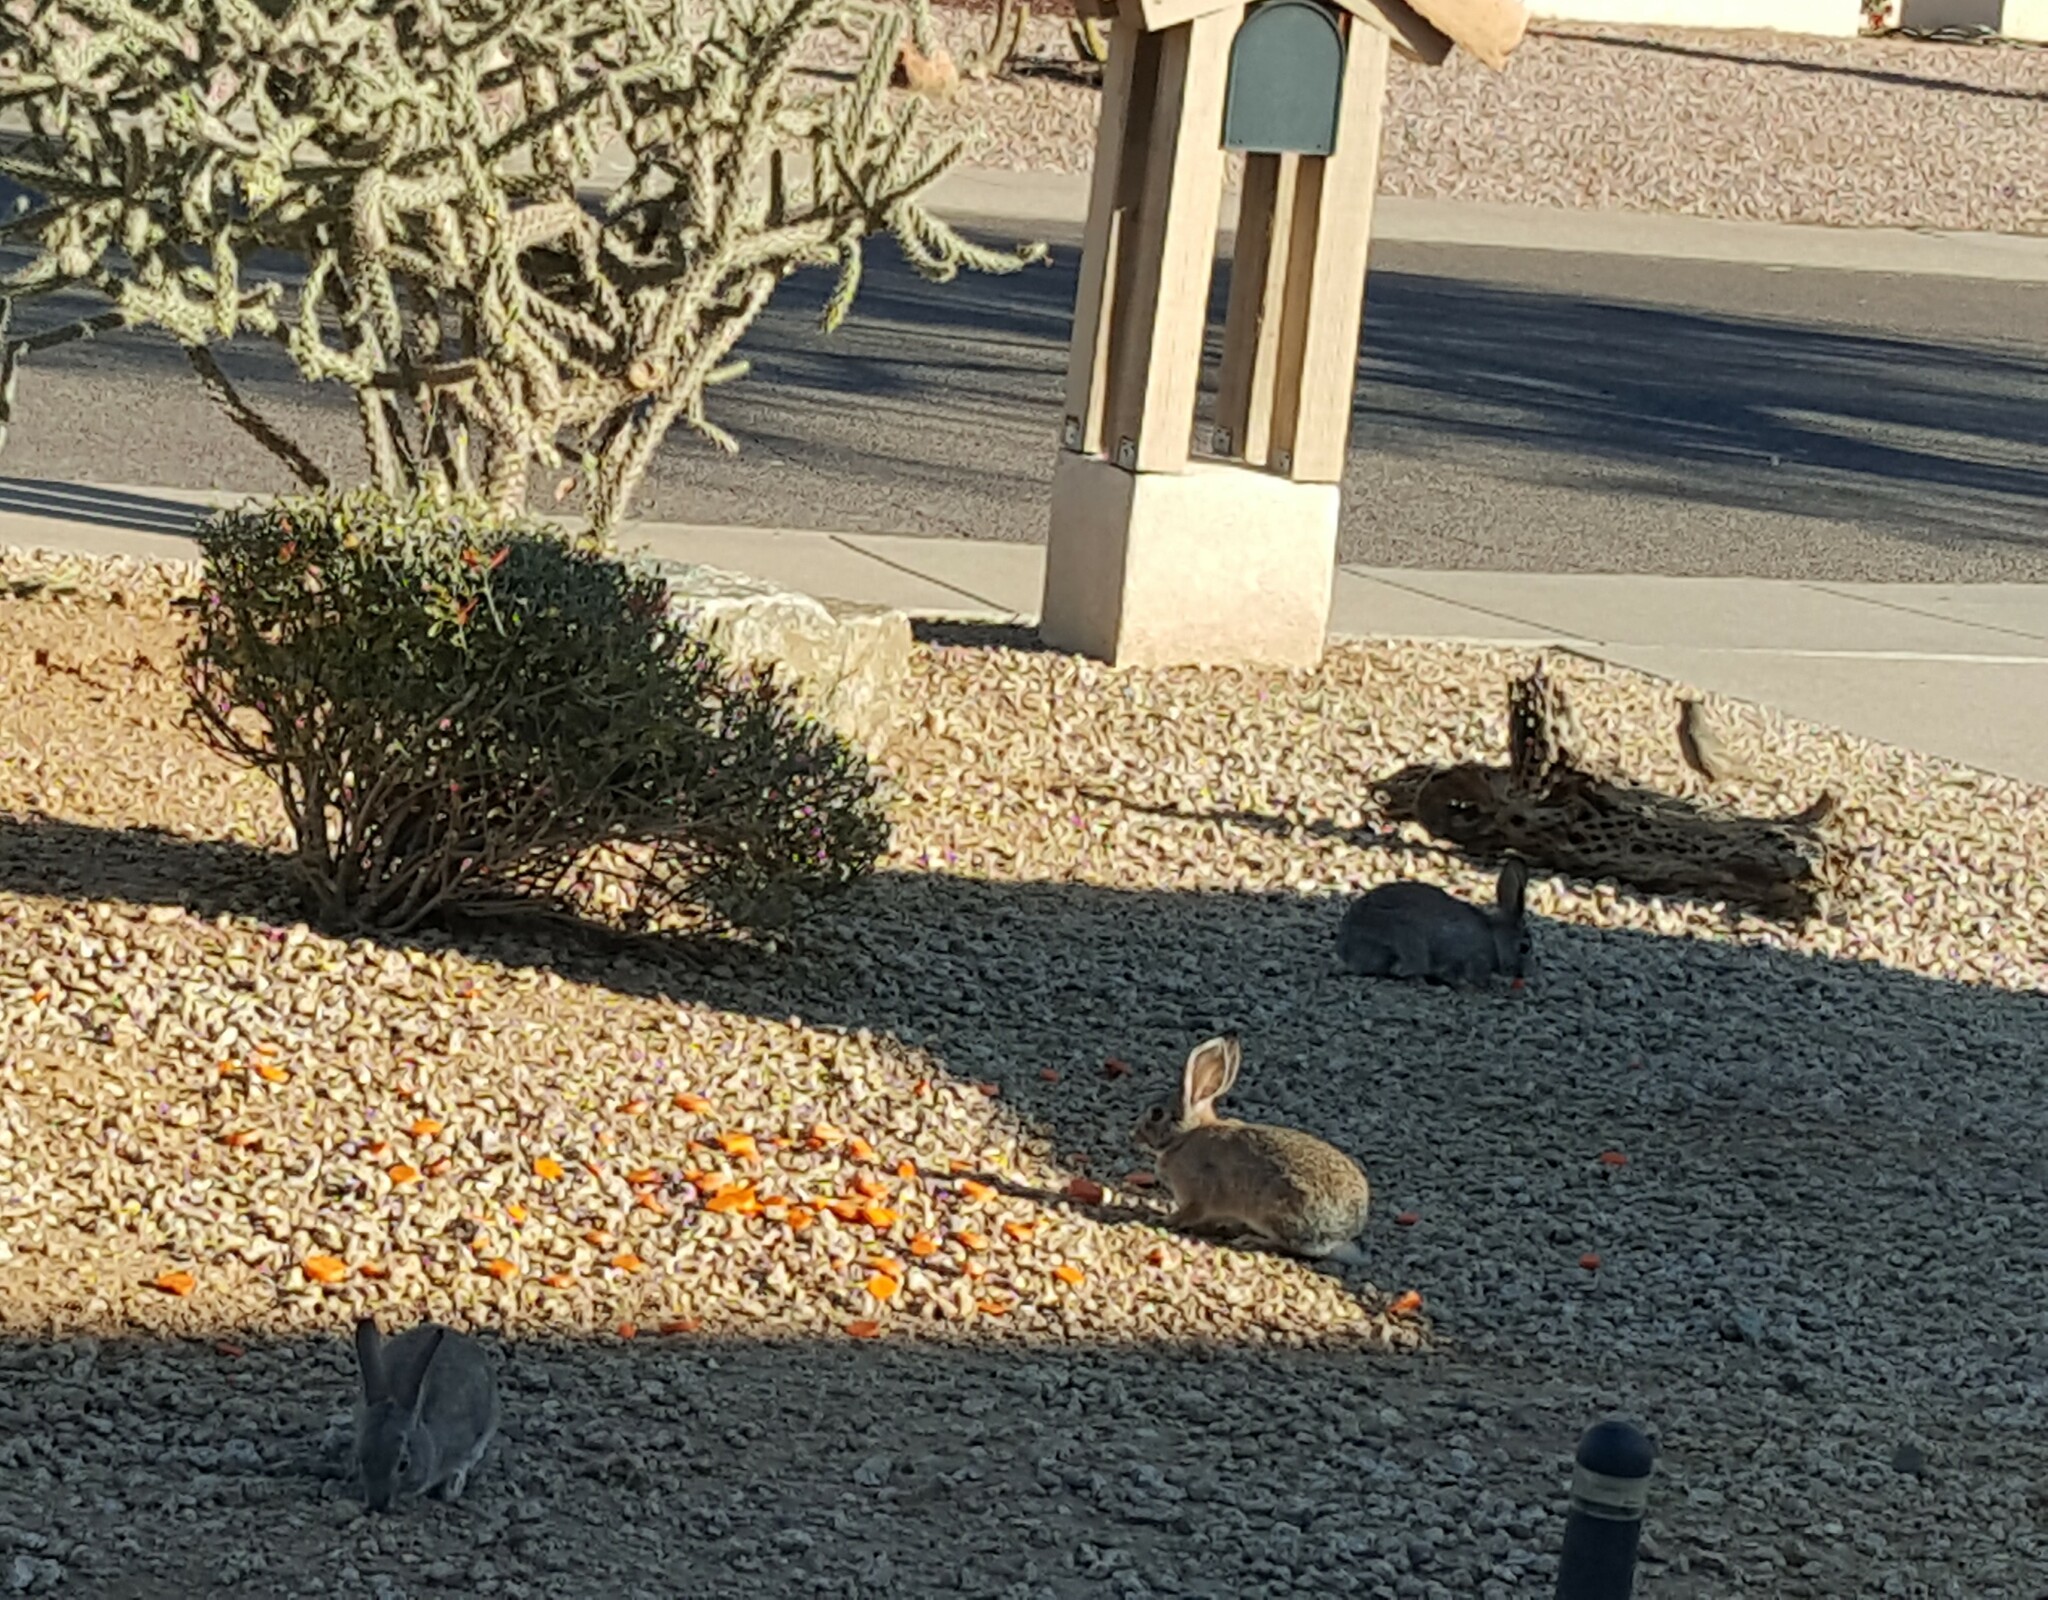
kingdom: Animalia
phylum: Chordata
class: Mammalia
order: Lagomorpha
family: Leporidae
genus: Sylvilagus
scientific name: Sylvilagus audubonii
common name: Desert cottontail
